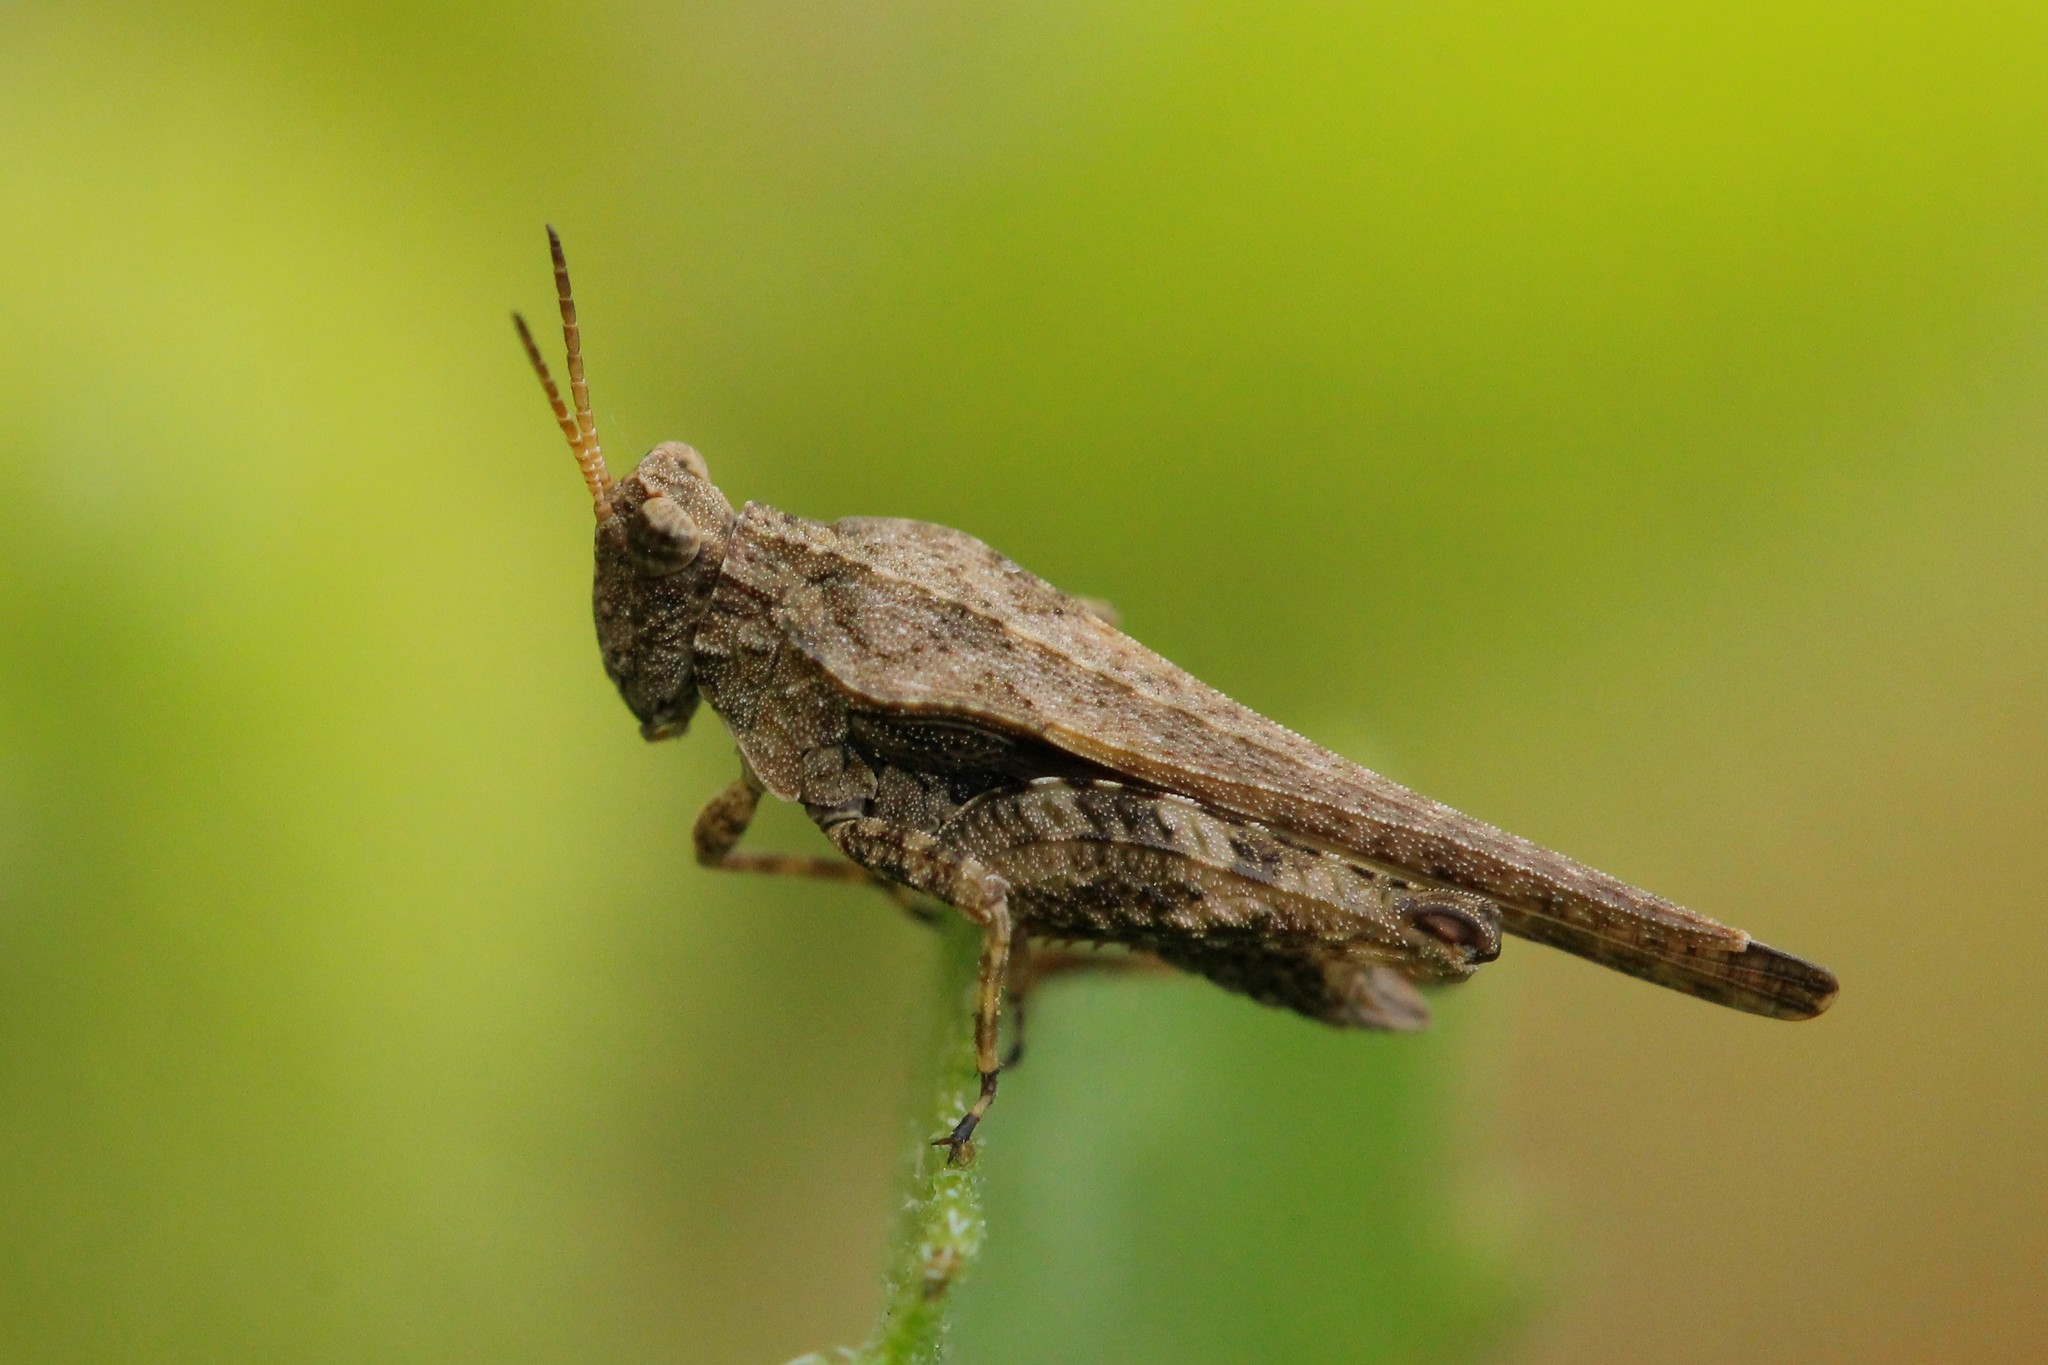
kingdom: Animalia
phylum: Arthropoda
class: Insecta
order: Orthoptera
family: Tetrigidae
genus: Tetrix
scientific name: Tetrix subulata
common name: Slender ground-hopper
